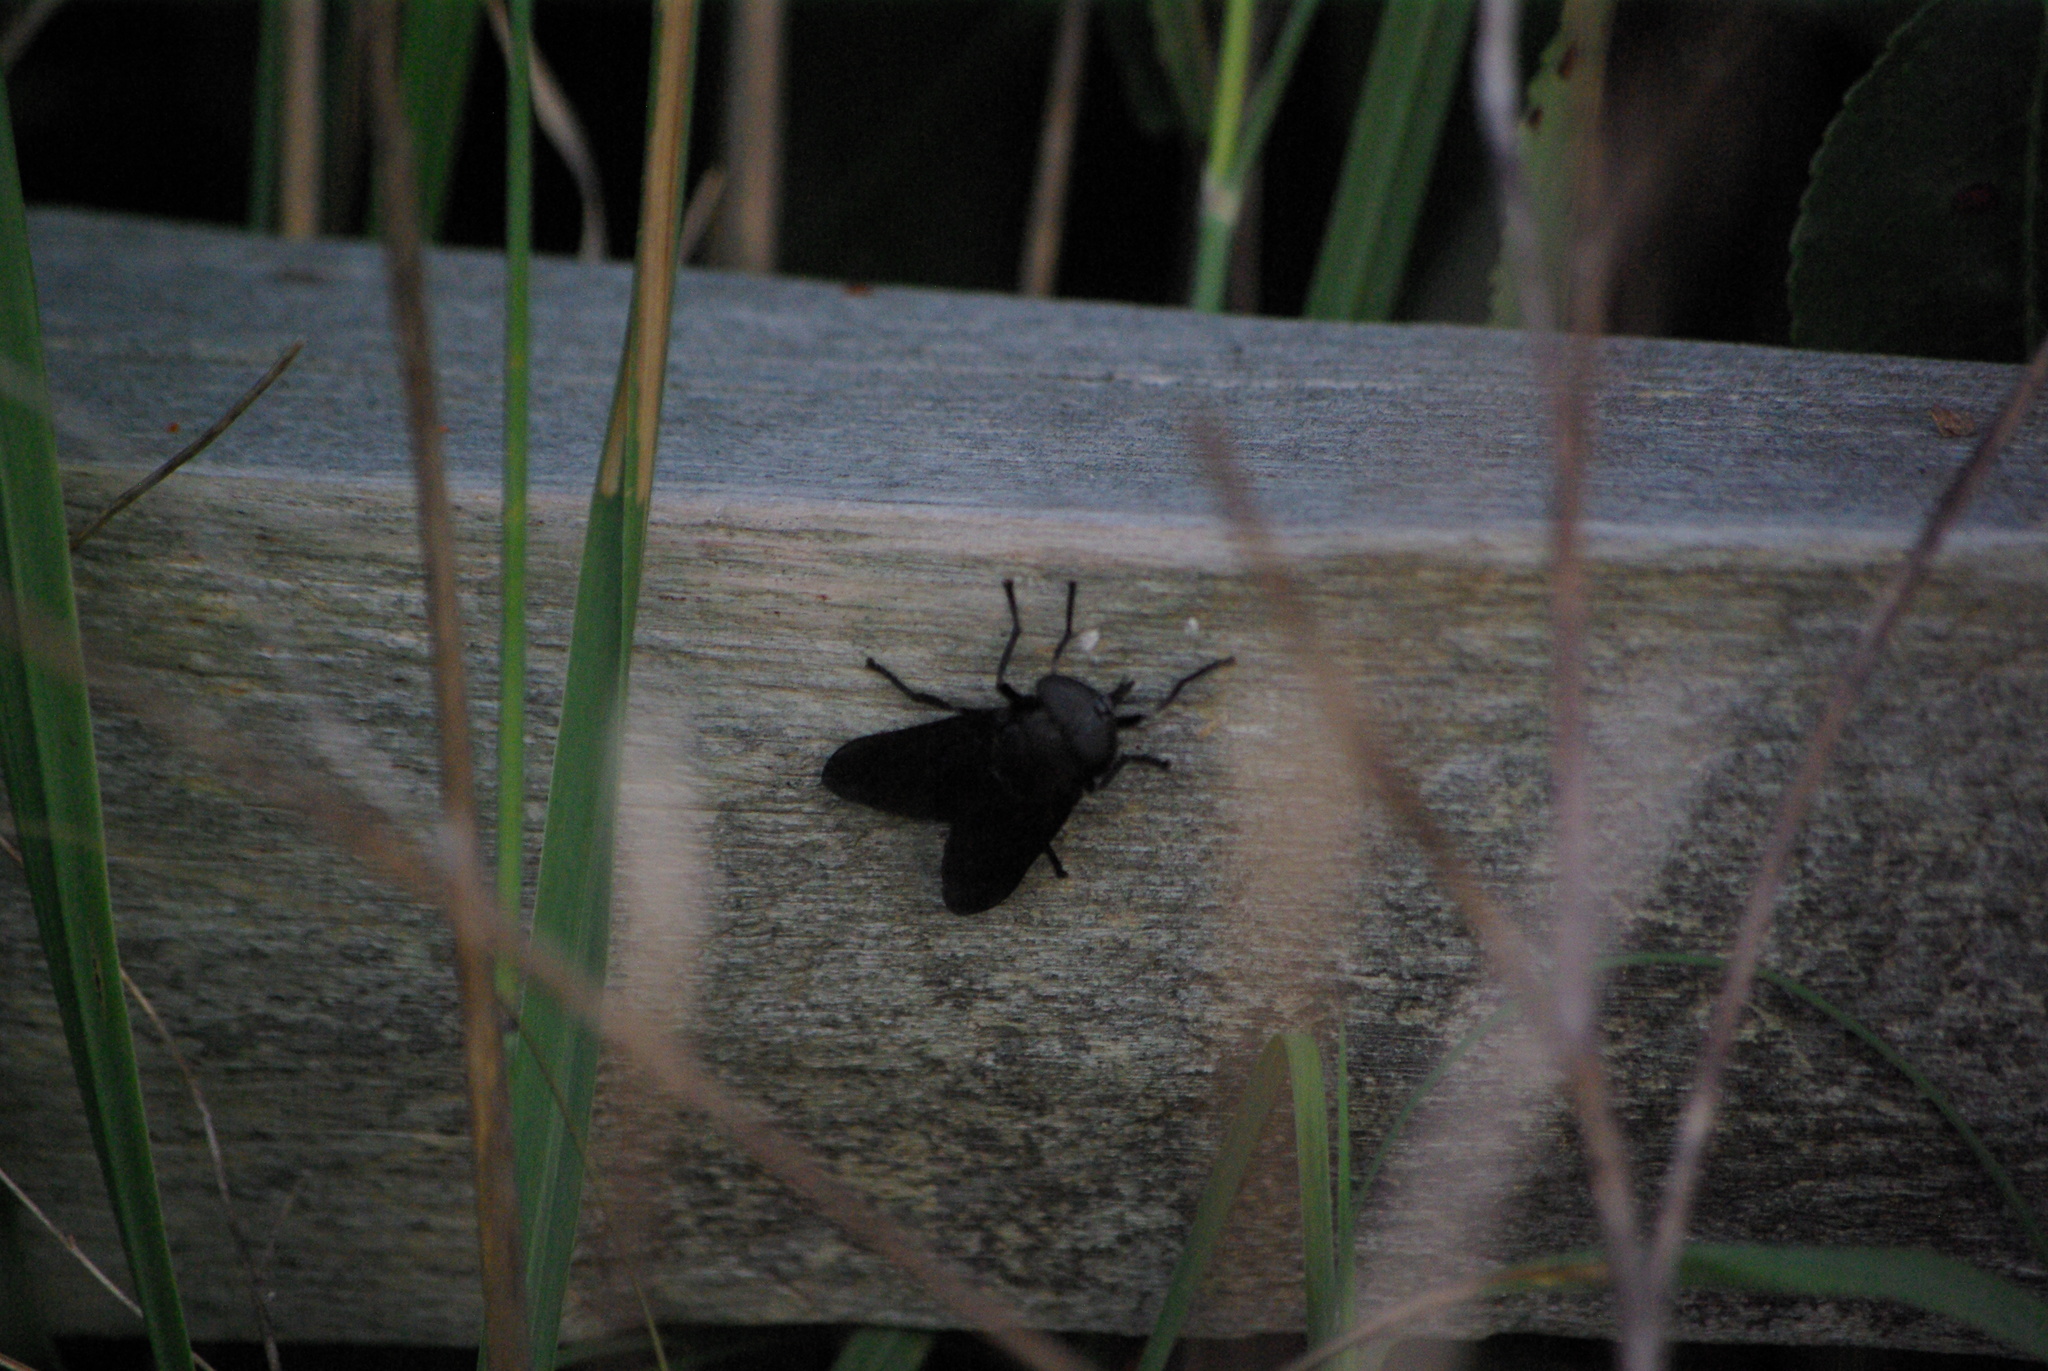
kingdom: Animalia
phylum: Arthropoda
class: Insecta
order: Diptera
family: Tabanidae
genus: Tabanus
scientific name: Tabanus atratus
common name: Black horse fly
